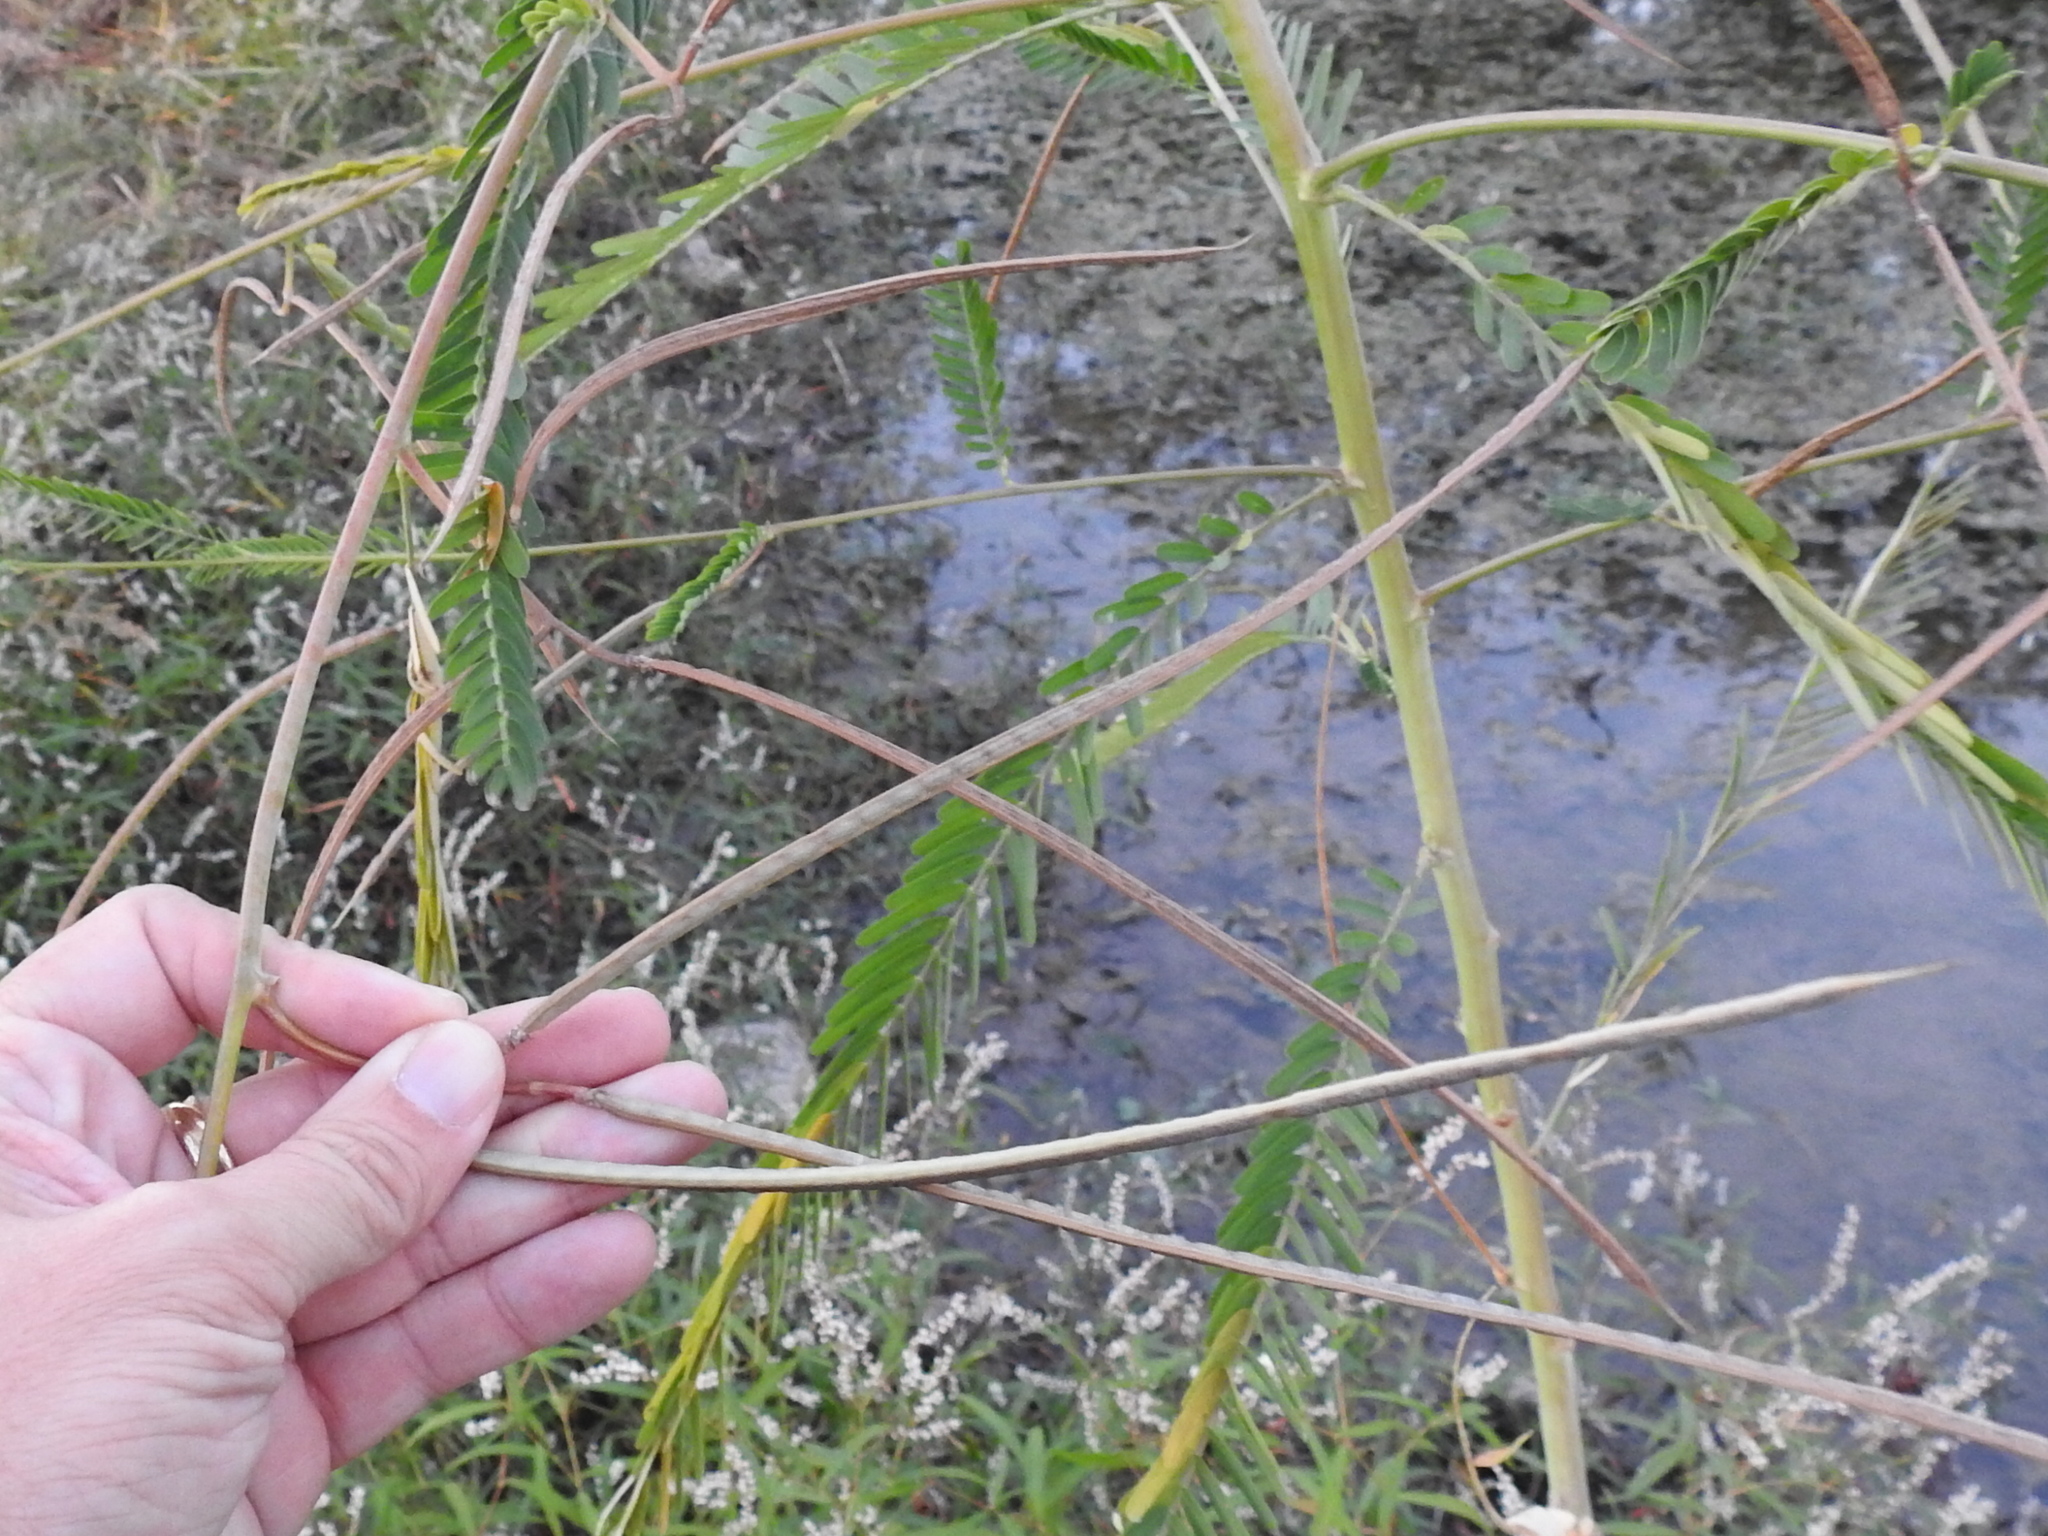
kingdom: Plantae
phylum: Tracheophyta
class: Magnoliopsida
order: Fabales
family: Fabaceae
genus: Sesbania
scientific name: Sesbania herbacea
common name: Bigpod sesbania
